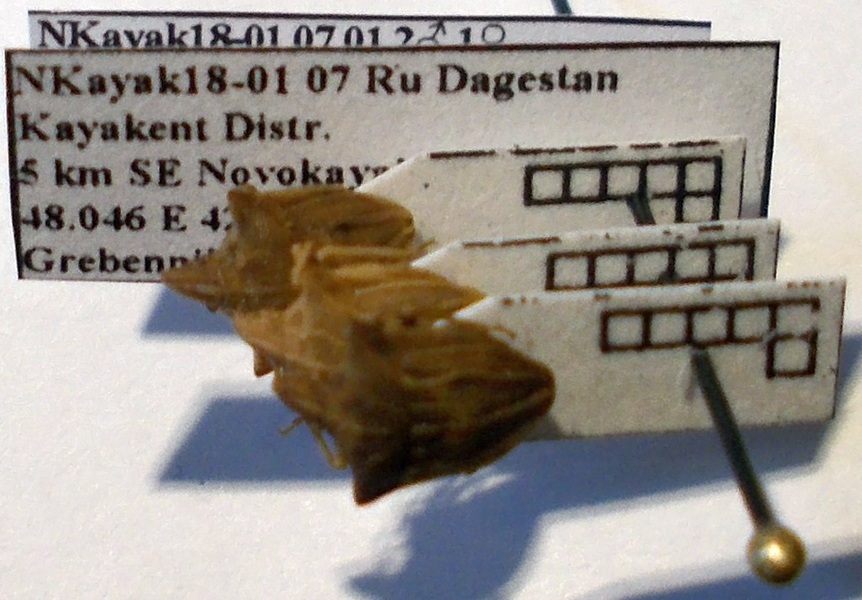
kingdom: Animalia
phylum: Arthropoda
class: Insecta
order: Hemiptera
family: Pentatomidae
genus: Ancyrosoma
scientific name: Ancyrosoma leucogrammes
